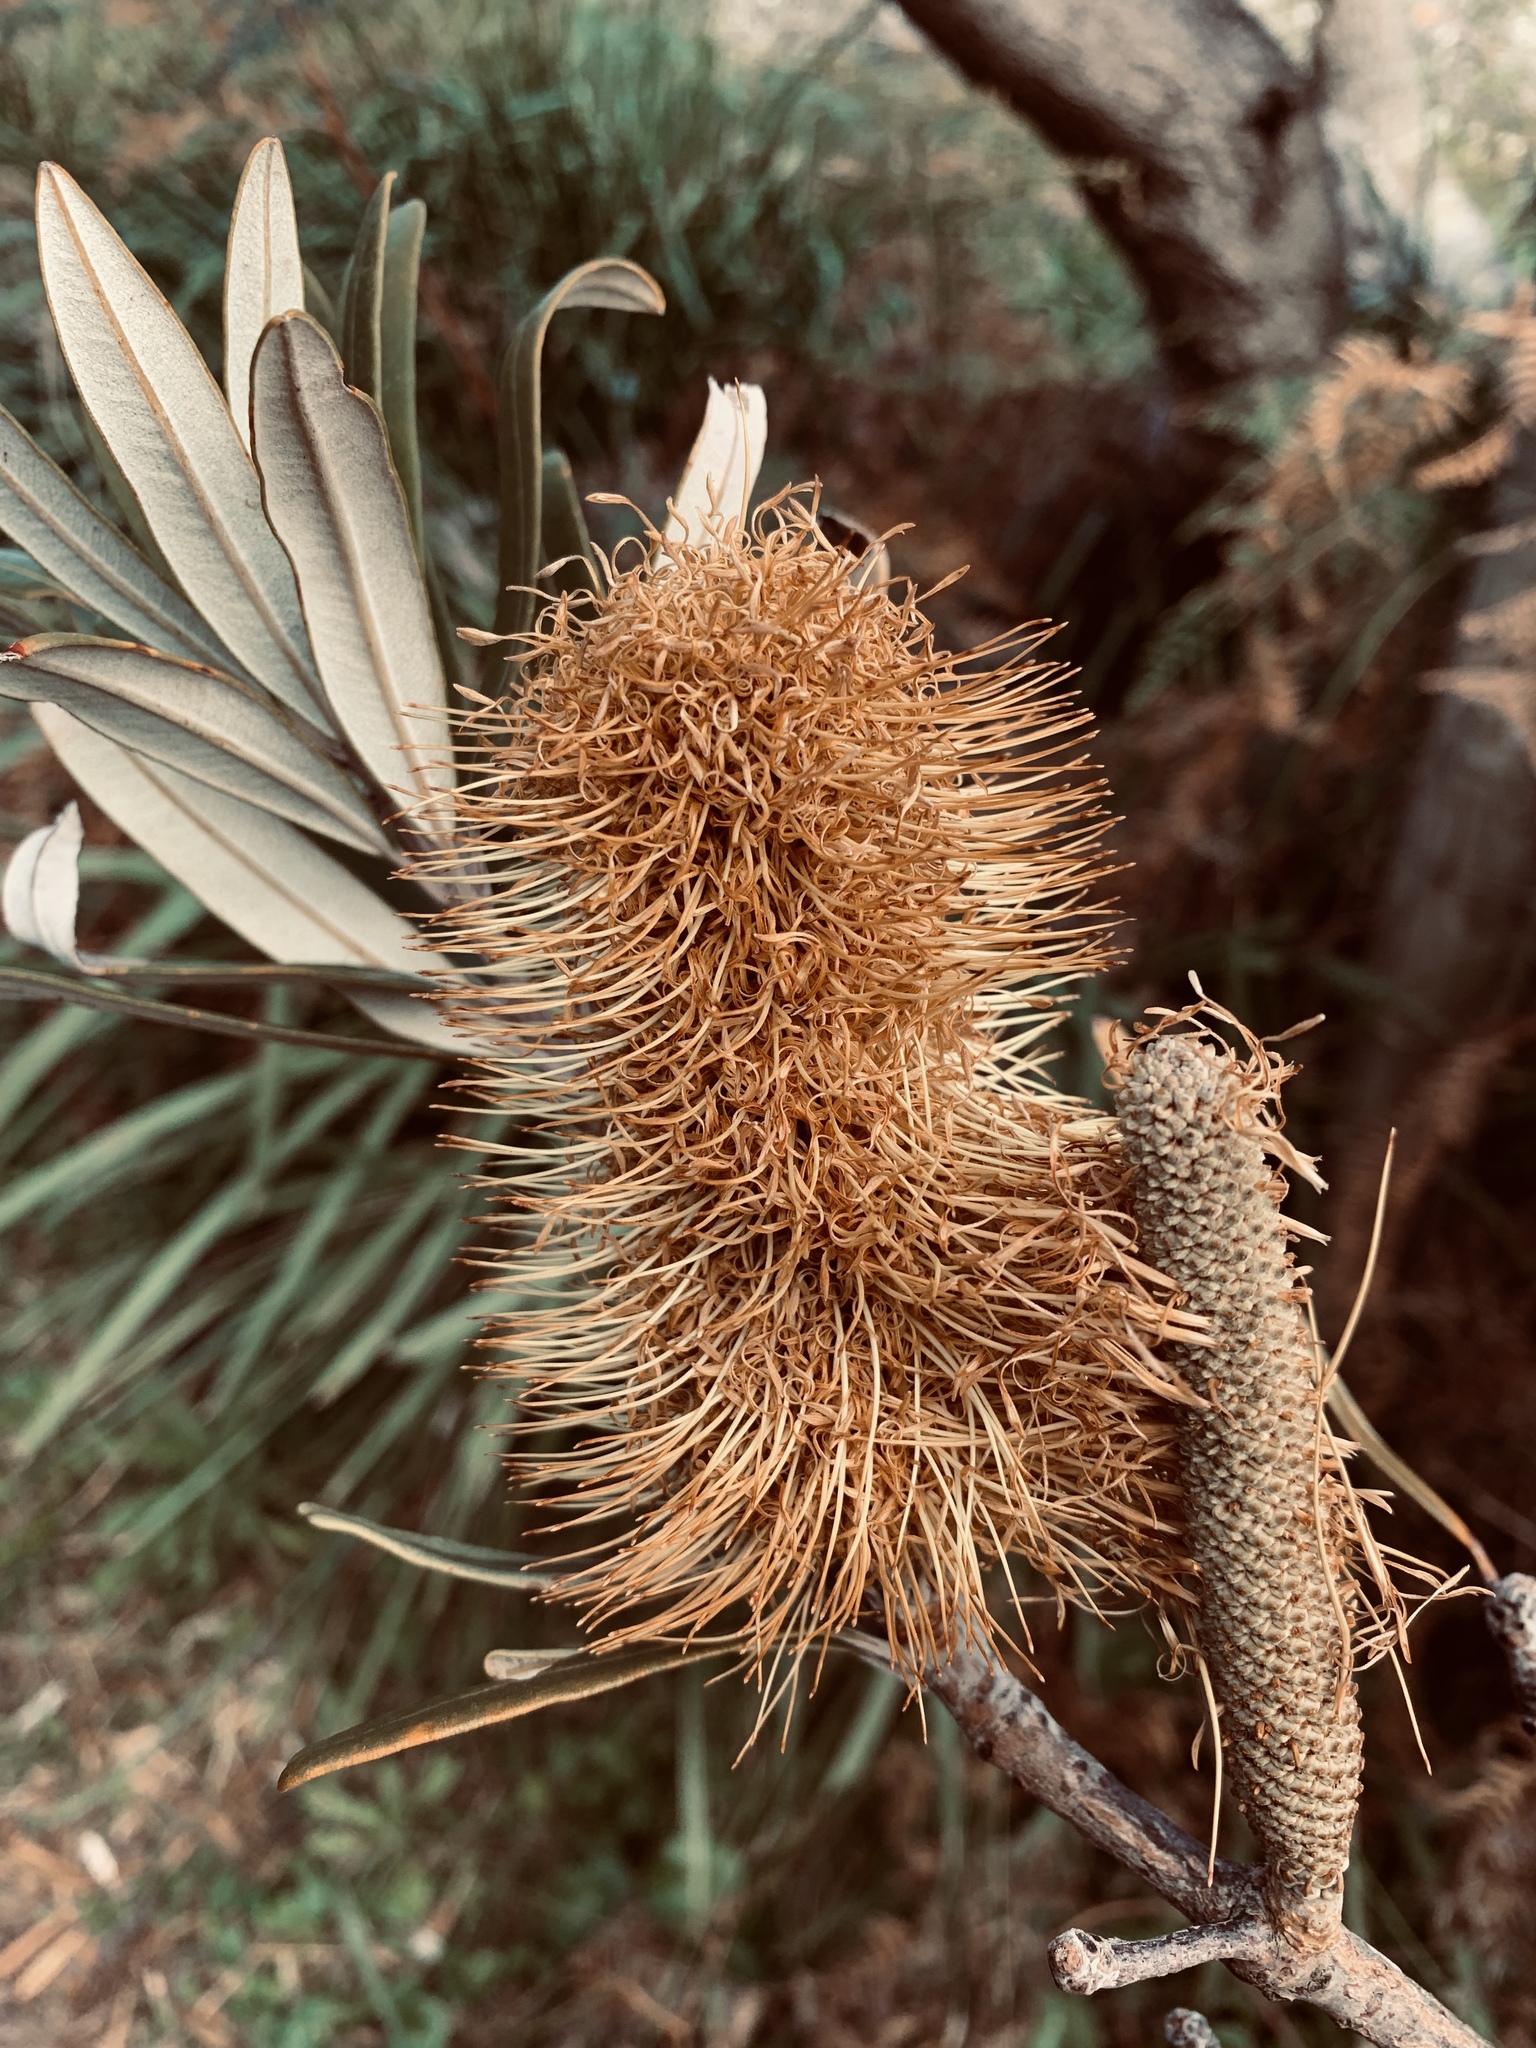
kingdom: Plantae
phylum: Tracheophyta
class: Magnoliopsida
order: Proteales
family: Proteaceae
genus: Banksia
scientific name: Banksia integrifolia
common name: White-honeysuckle
